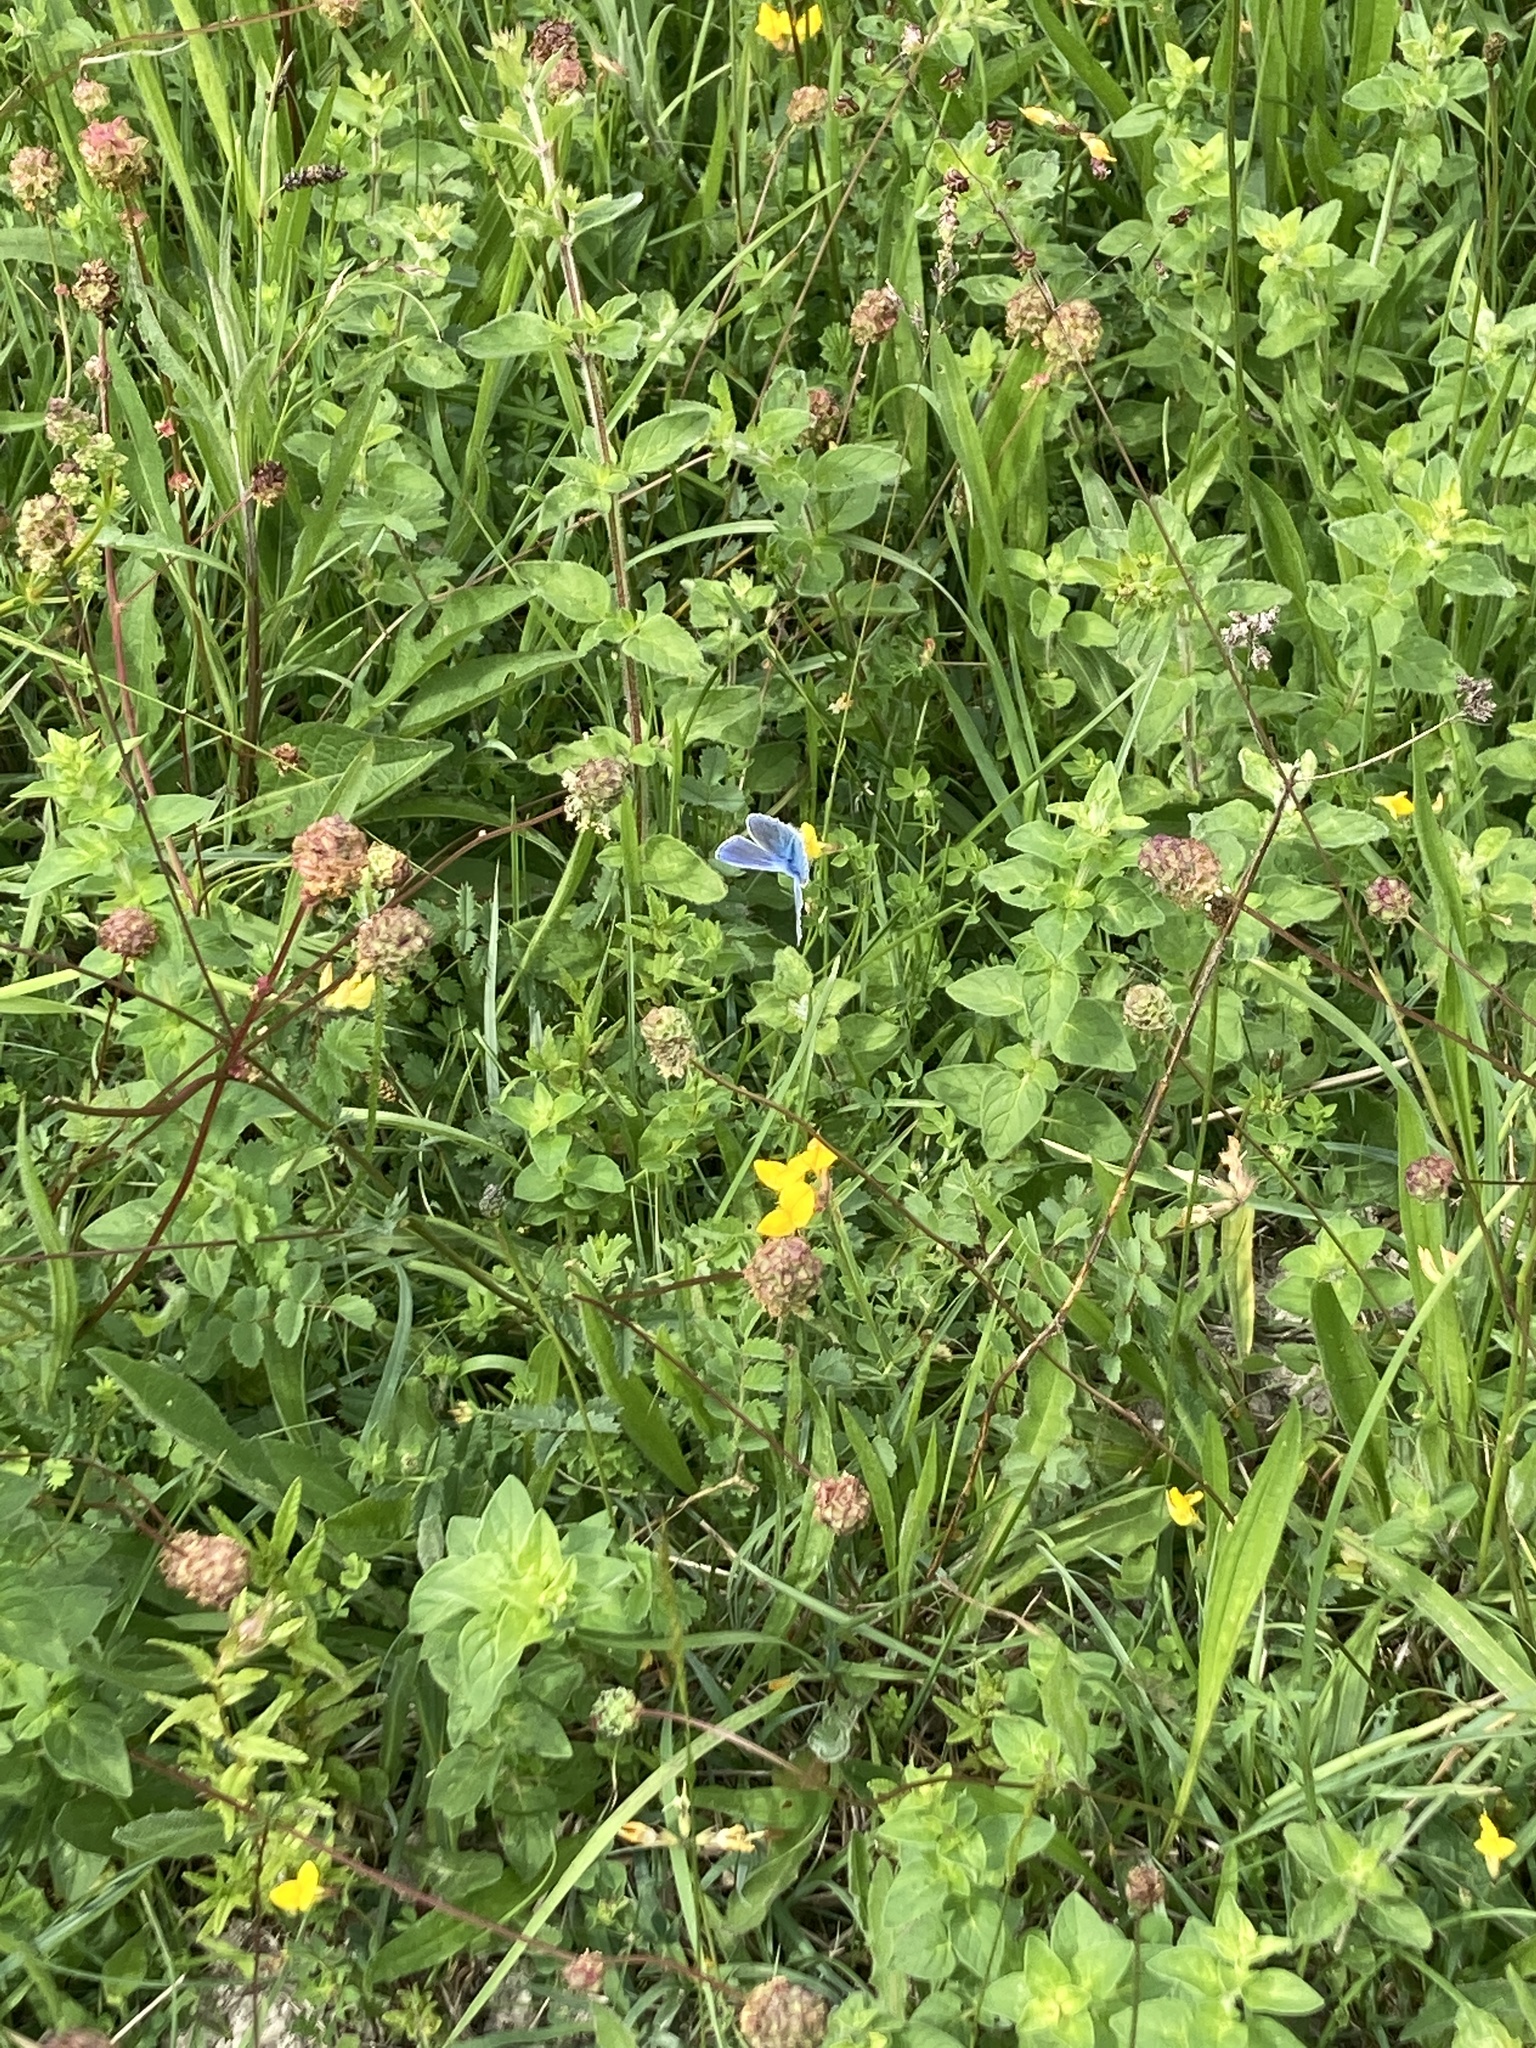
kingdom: Animalia
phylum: Arthropoda
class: Insecta
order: Lepidoptera
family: Lycaenidae
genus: Polyommatus
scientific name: Polyommatus icarus
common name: Common blue
